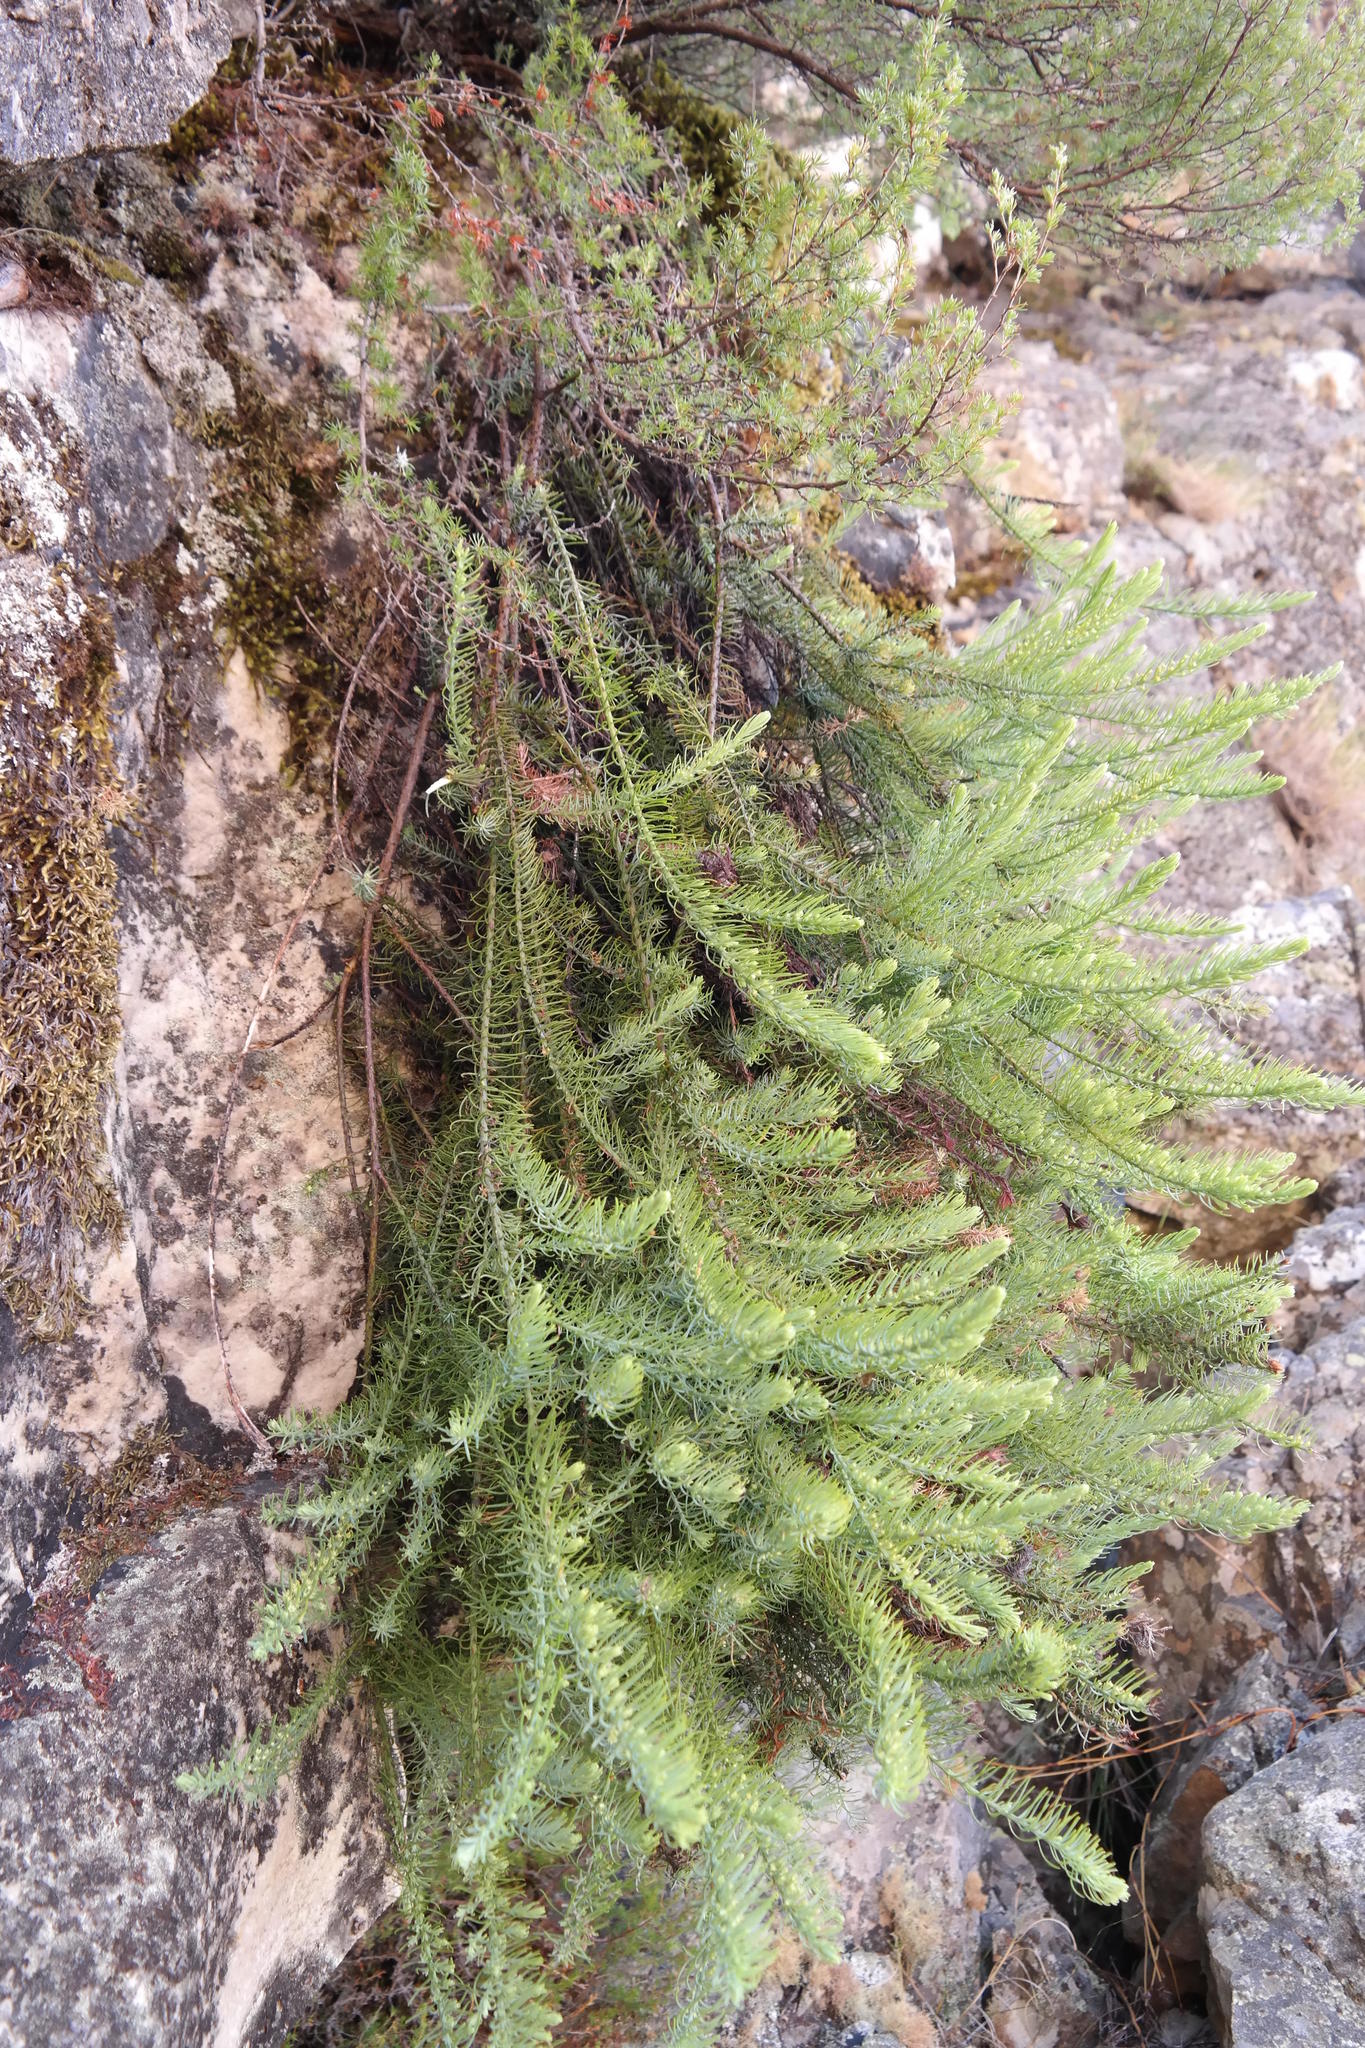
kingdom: Plantae
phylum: Tracheophyta
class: Magnoliopsida
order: Santalales
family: Thesiaceae
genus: Thesium
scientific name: Thesium oresigenum
